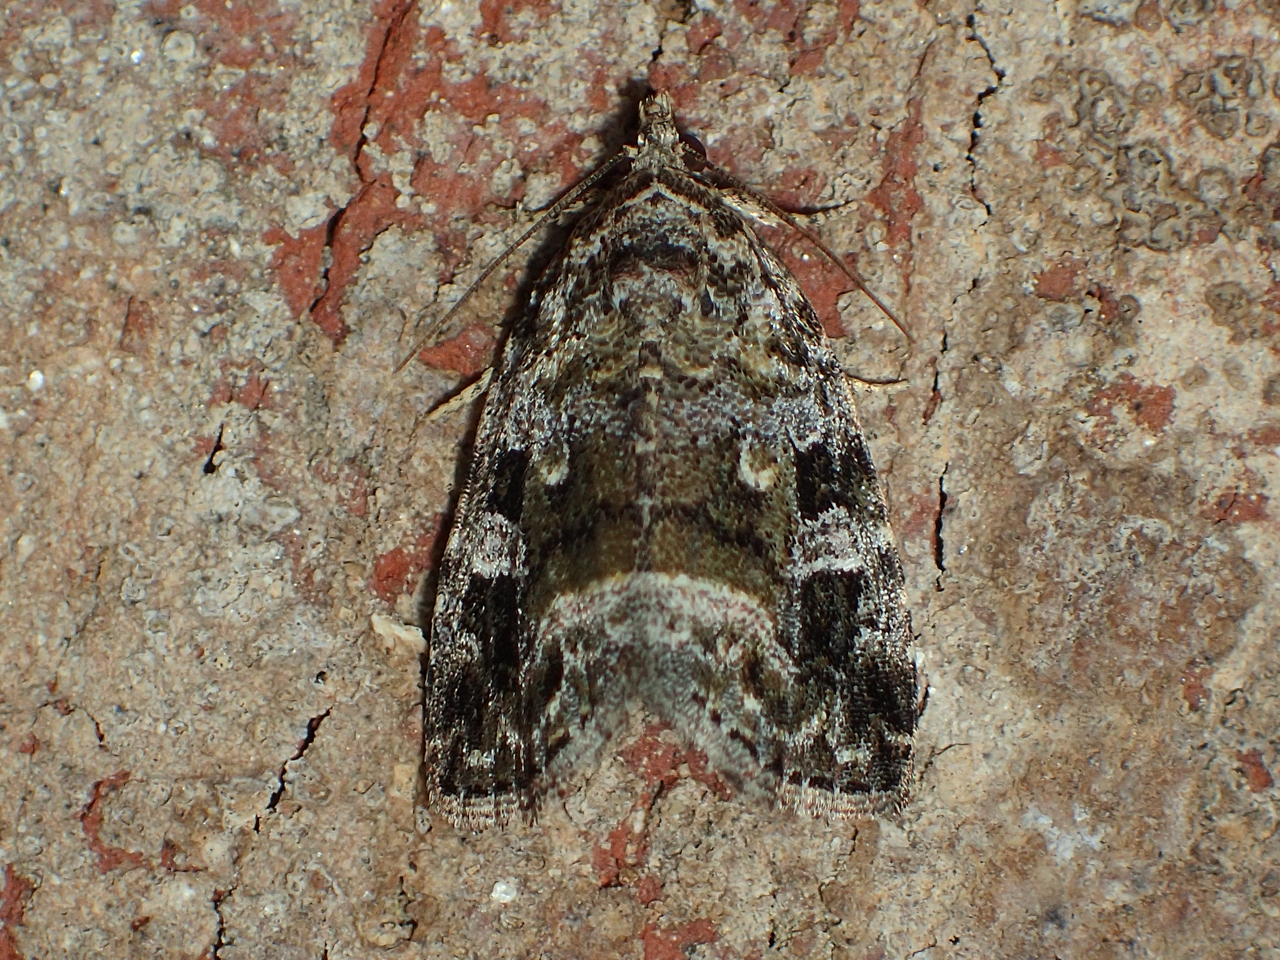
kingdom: Animalia
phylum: Arthropoda
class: Insecta
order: Lepidoptera
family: Noctuidae
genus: Protodeltote
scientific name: Protodeltote muscosula
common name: Large mossy glyph
